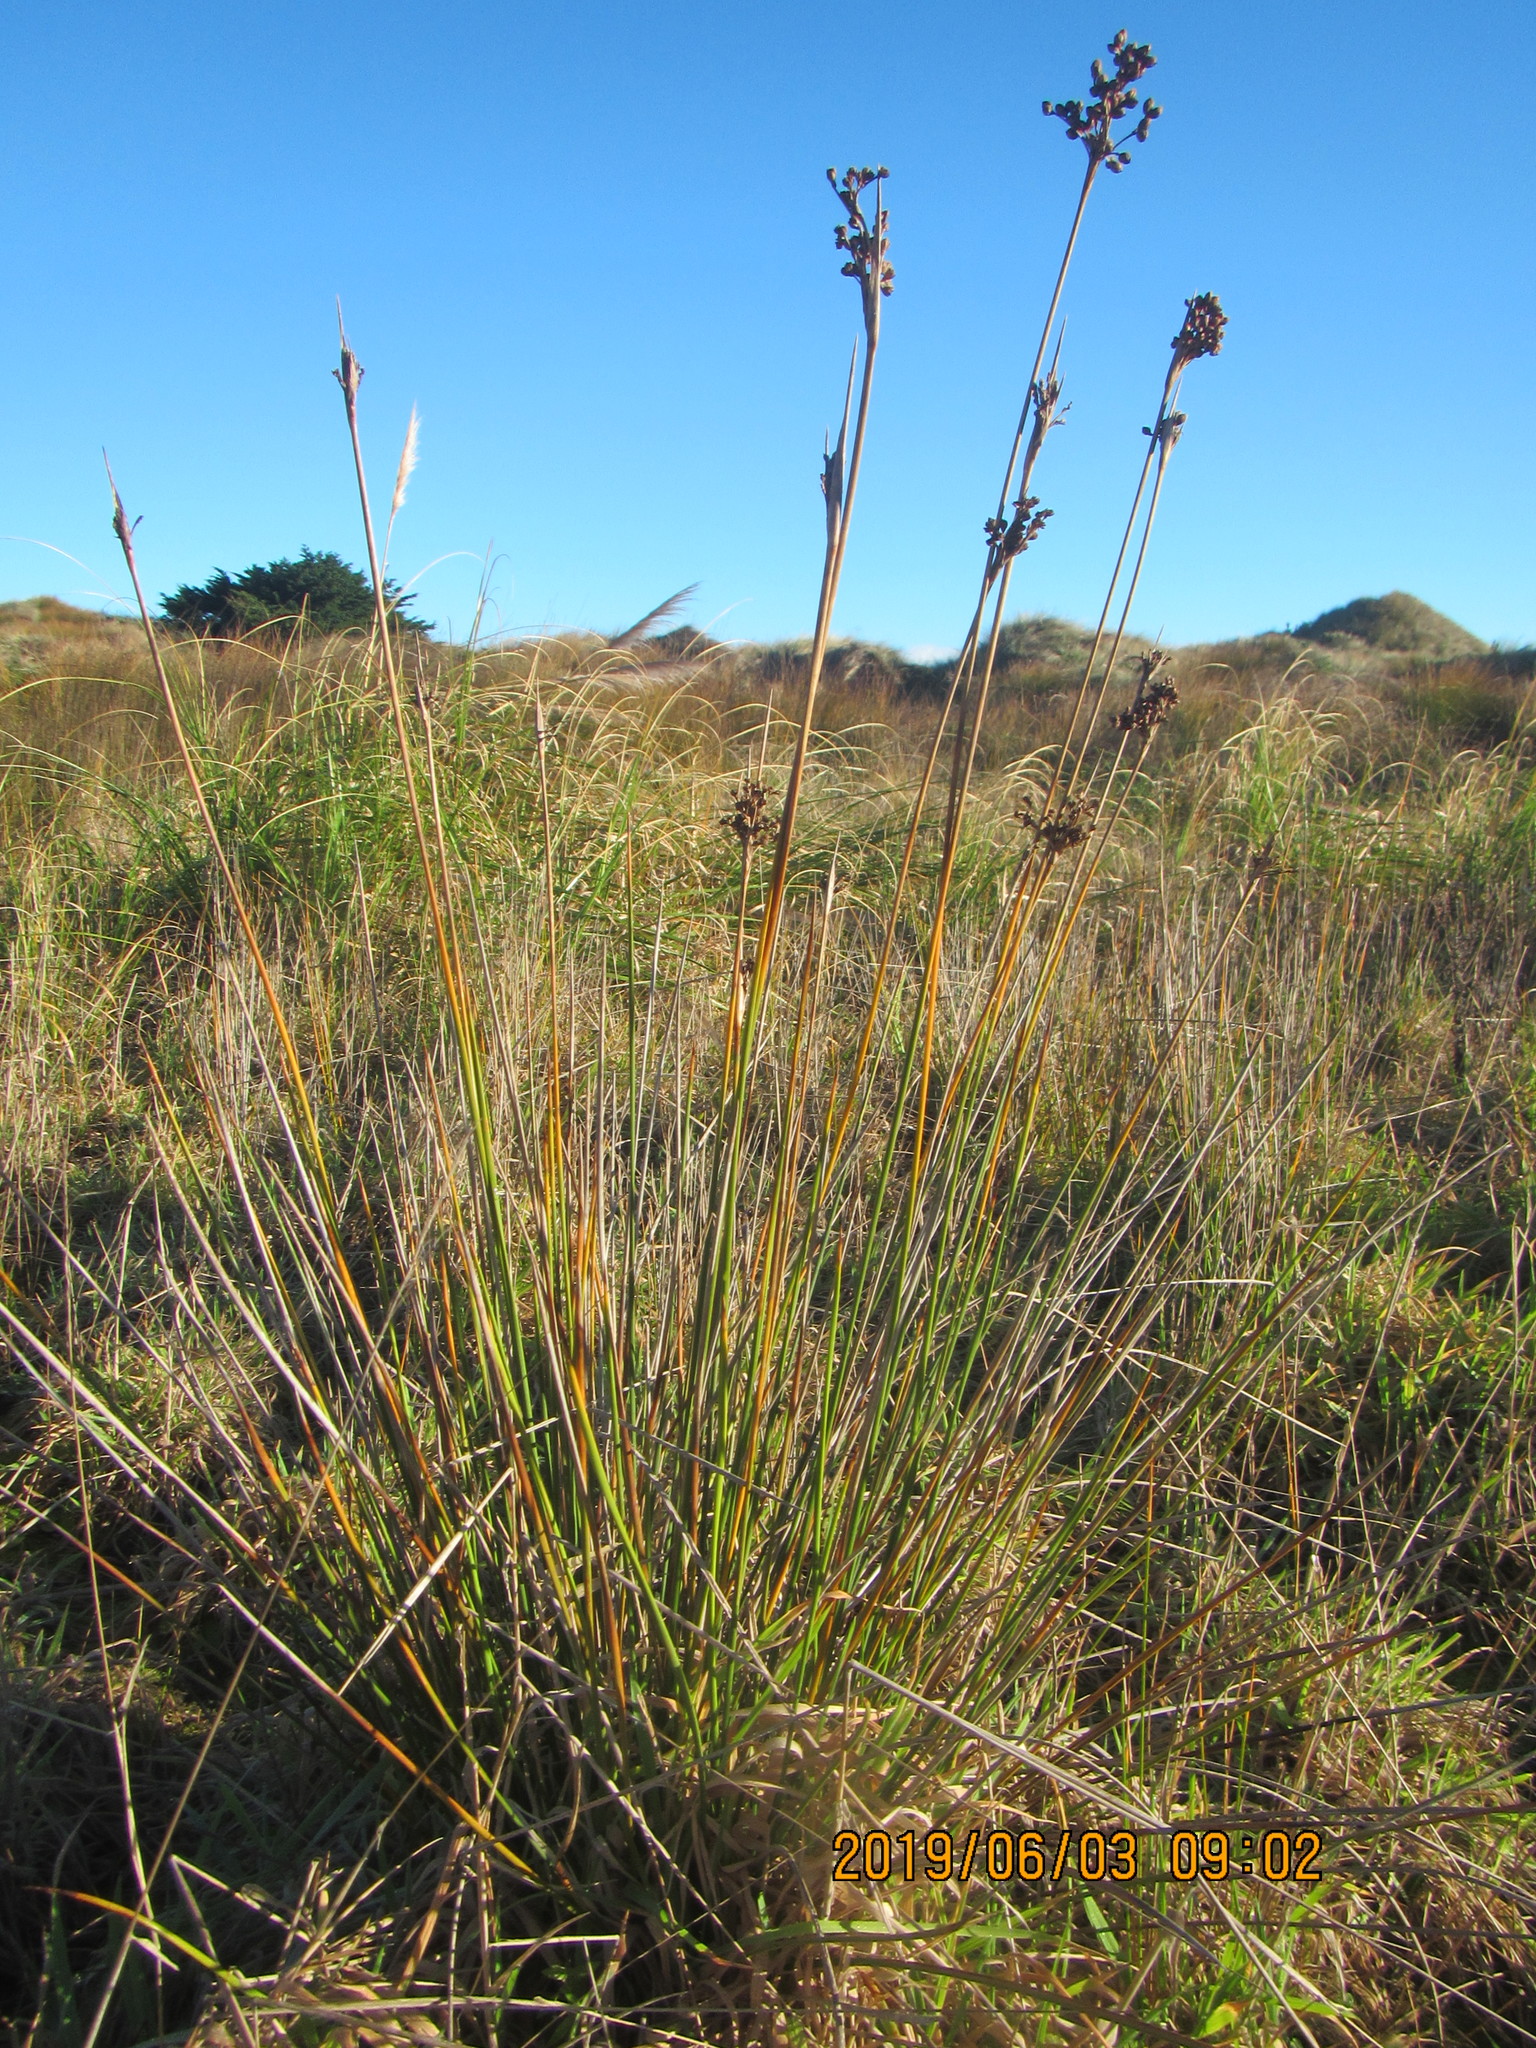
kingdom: Plantae
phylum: Tracheophyta
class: Liliopsida
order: Poales
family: Juncaceae
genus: Juncus
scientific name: Juncus acutus
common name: Sharp rush
